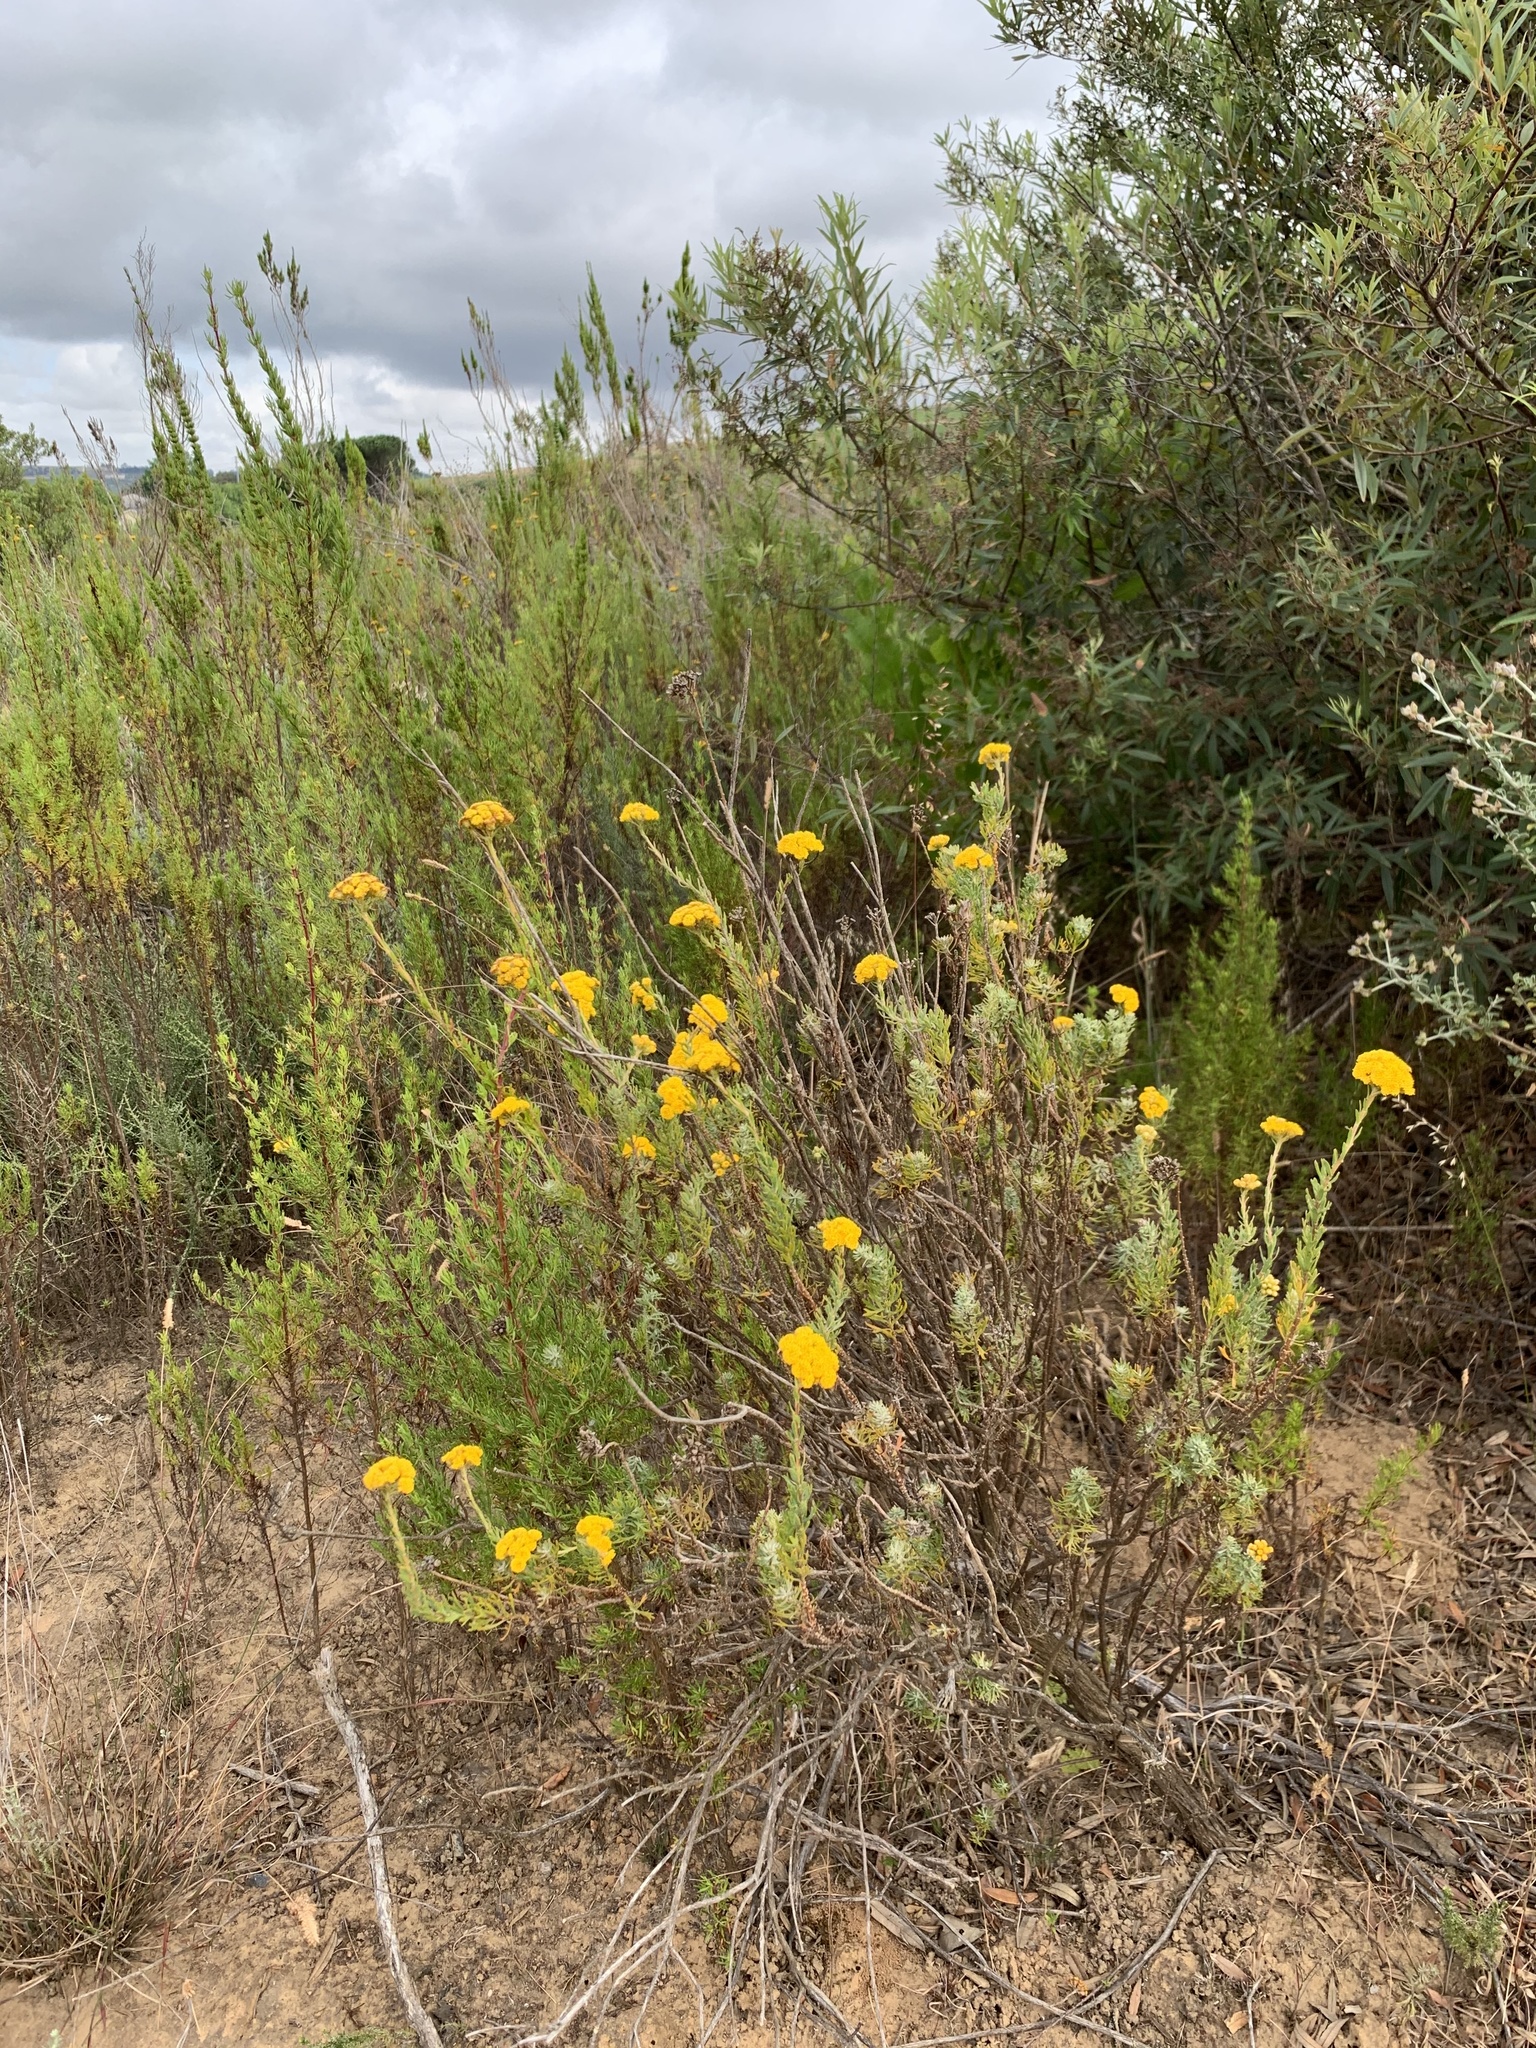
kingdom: Plantae
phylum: Tracheophyta
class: Magnoliopsida
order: Asterales
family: Asteraceae
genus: Athanasia
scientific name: Athanasia trifurcata
